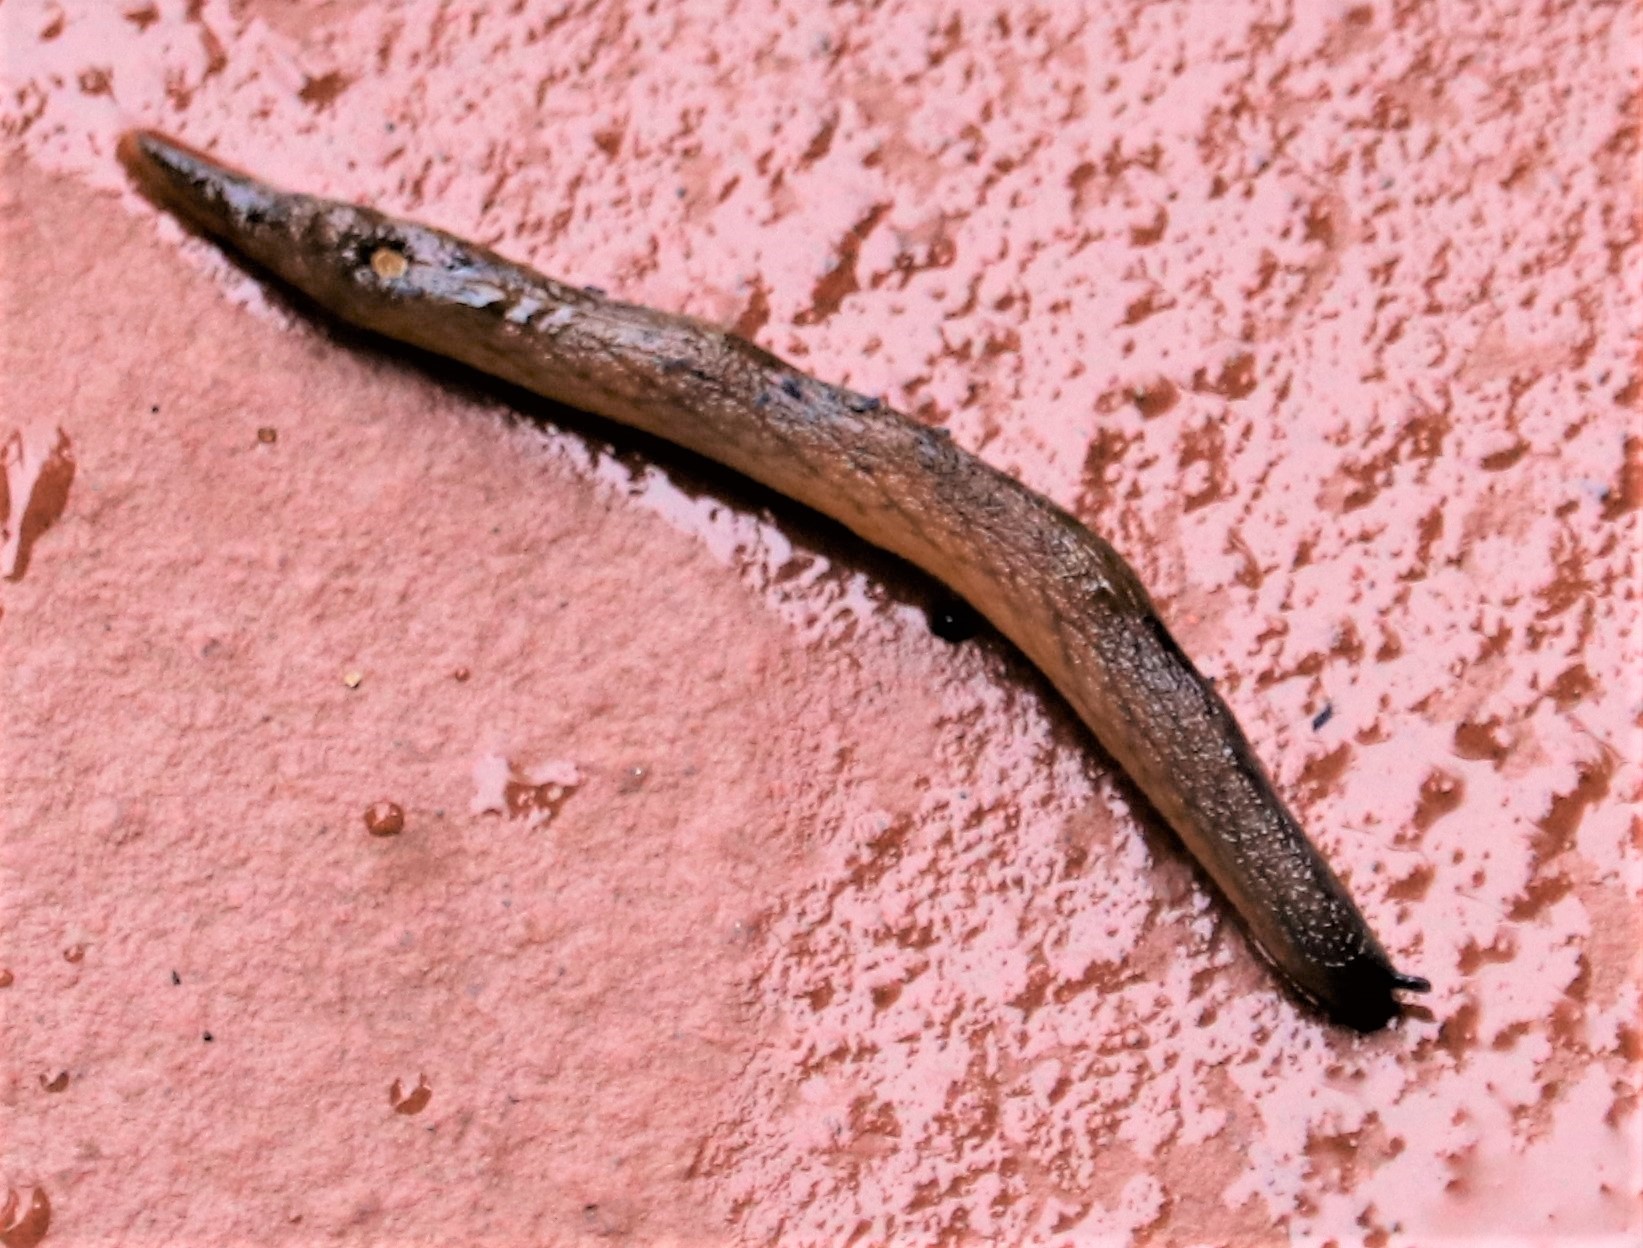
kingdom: Animalia
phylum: Mollusca
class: Gastropoda
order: Stylommatophora
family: Rhytididae
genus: Chlamydephorus
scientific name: Chlamydephorus gibbonsi
